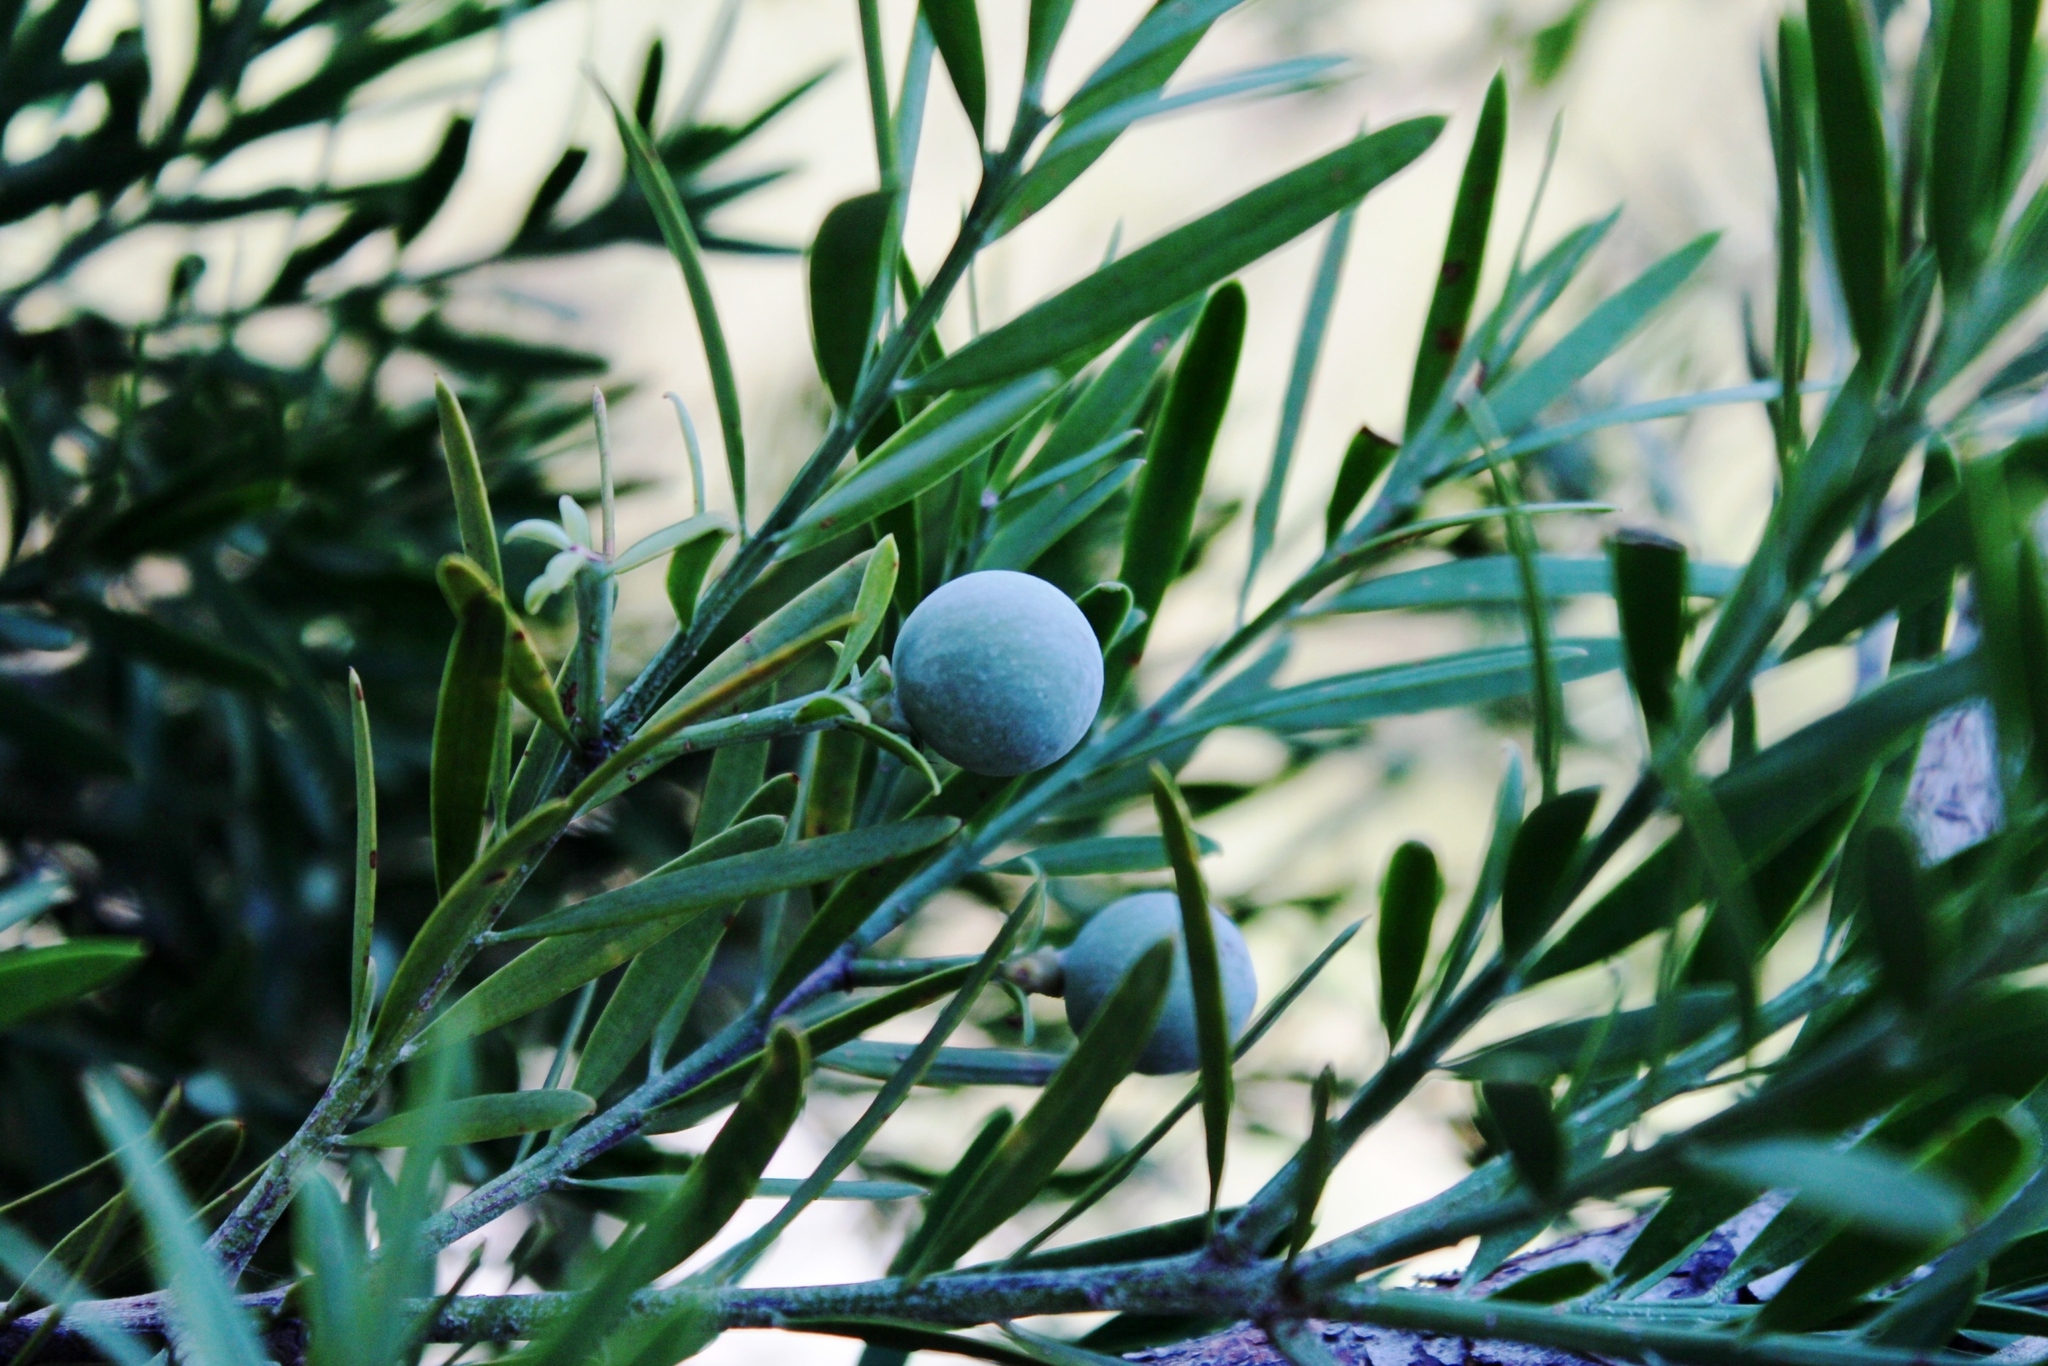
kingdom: Plantae
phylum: Tracheophyta
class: Pinopsida
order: Pinales
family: Podocarpaceae
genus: Afrocarpus
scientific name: Afrocarpus falcatus
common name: Bastard yellowwood
